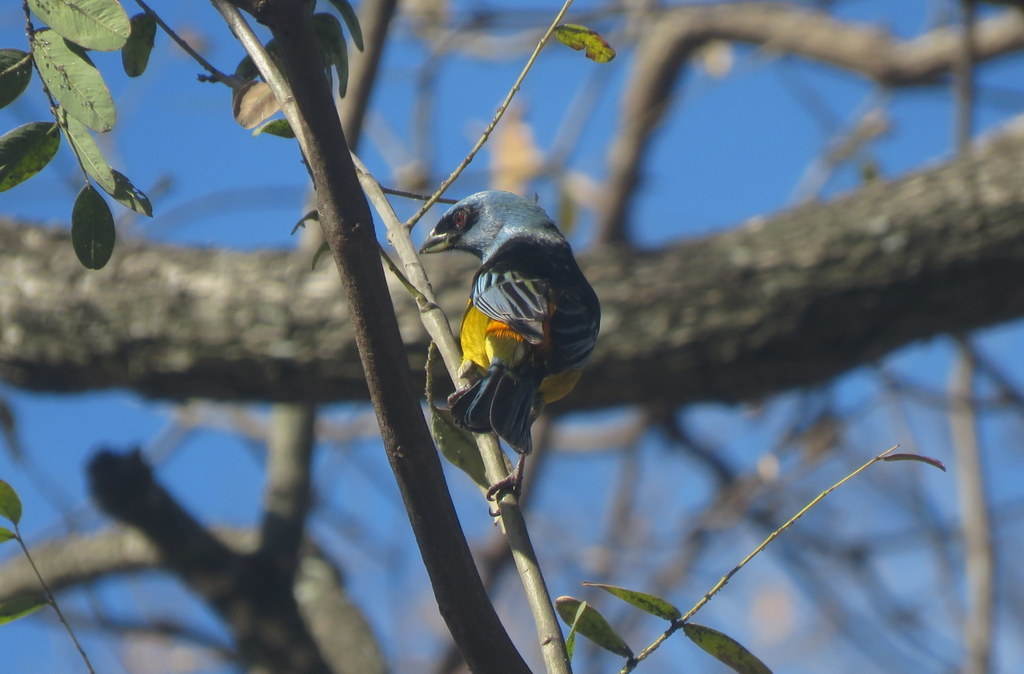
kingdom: Animalia
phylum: Chordata
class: Aves
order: Passeriformes
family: Thraupidae
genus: Rauenia
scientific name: Rauenia bonariensis
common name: Blue-and-yellow tanager
